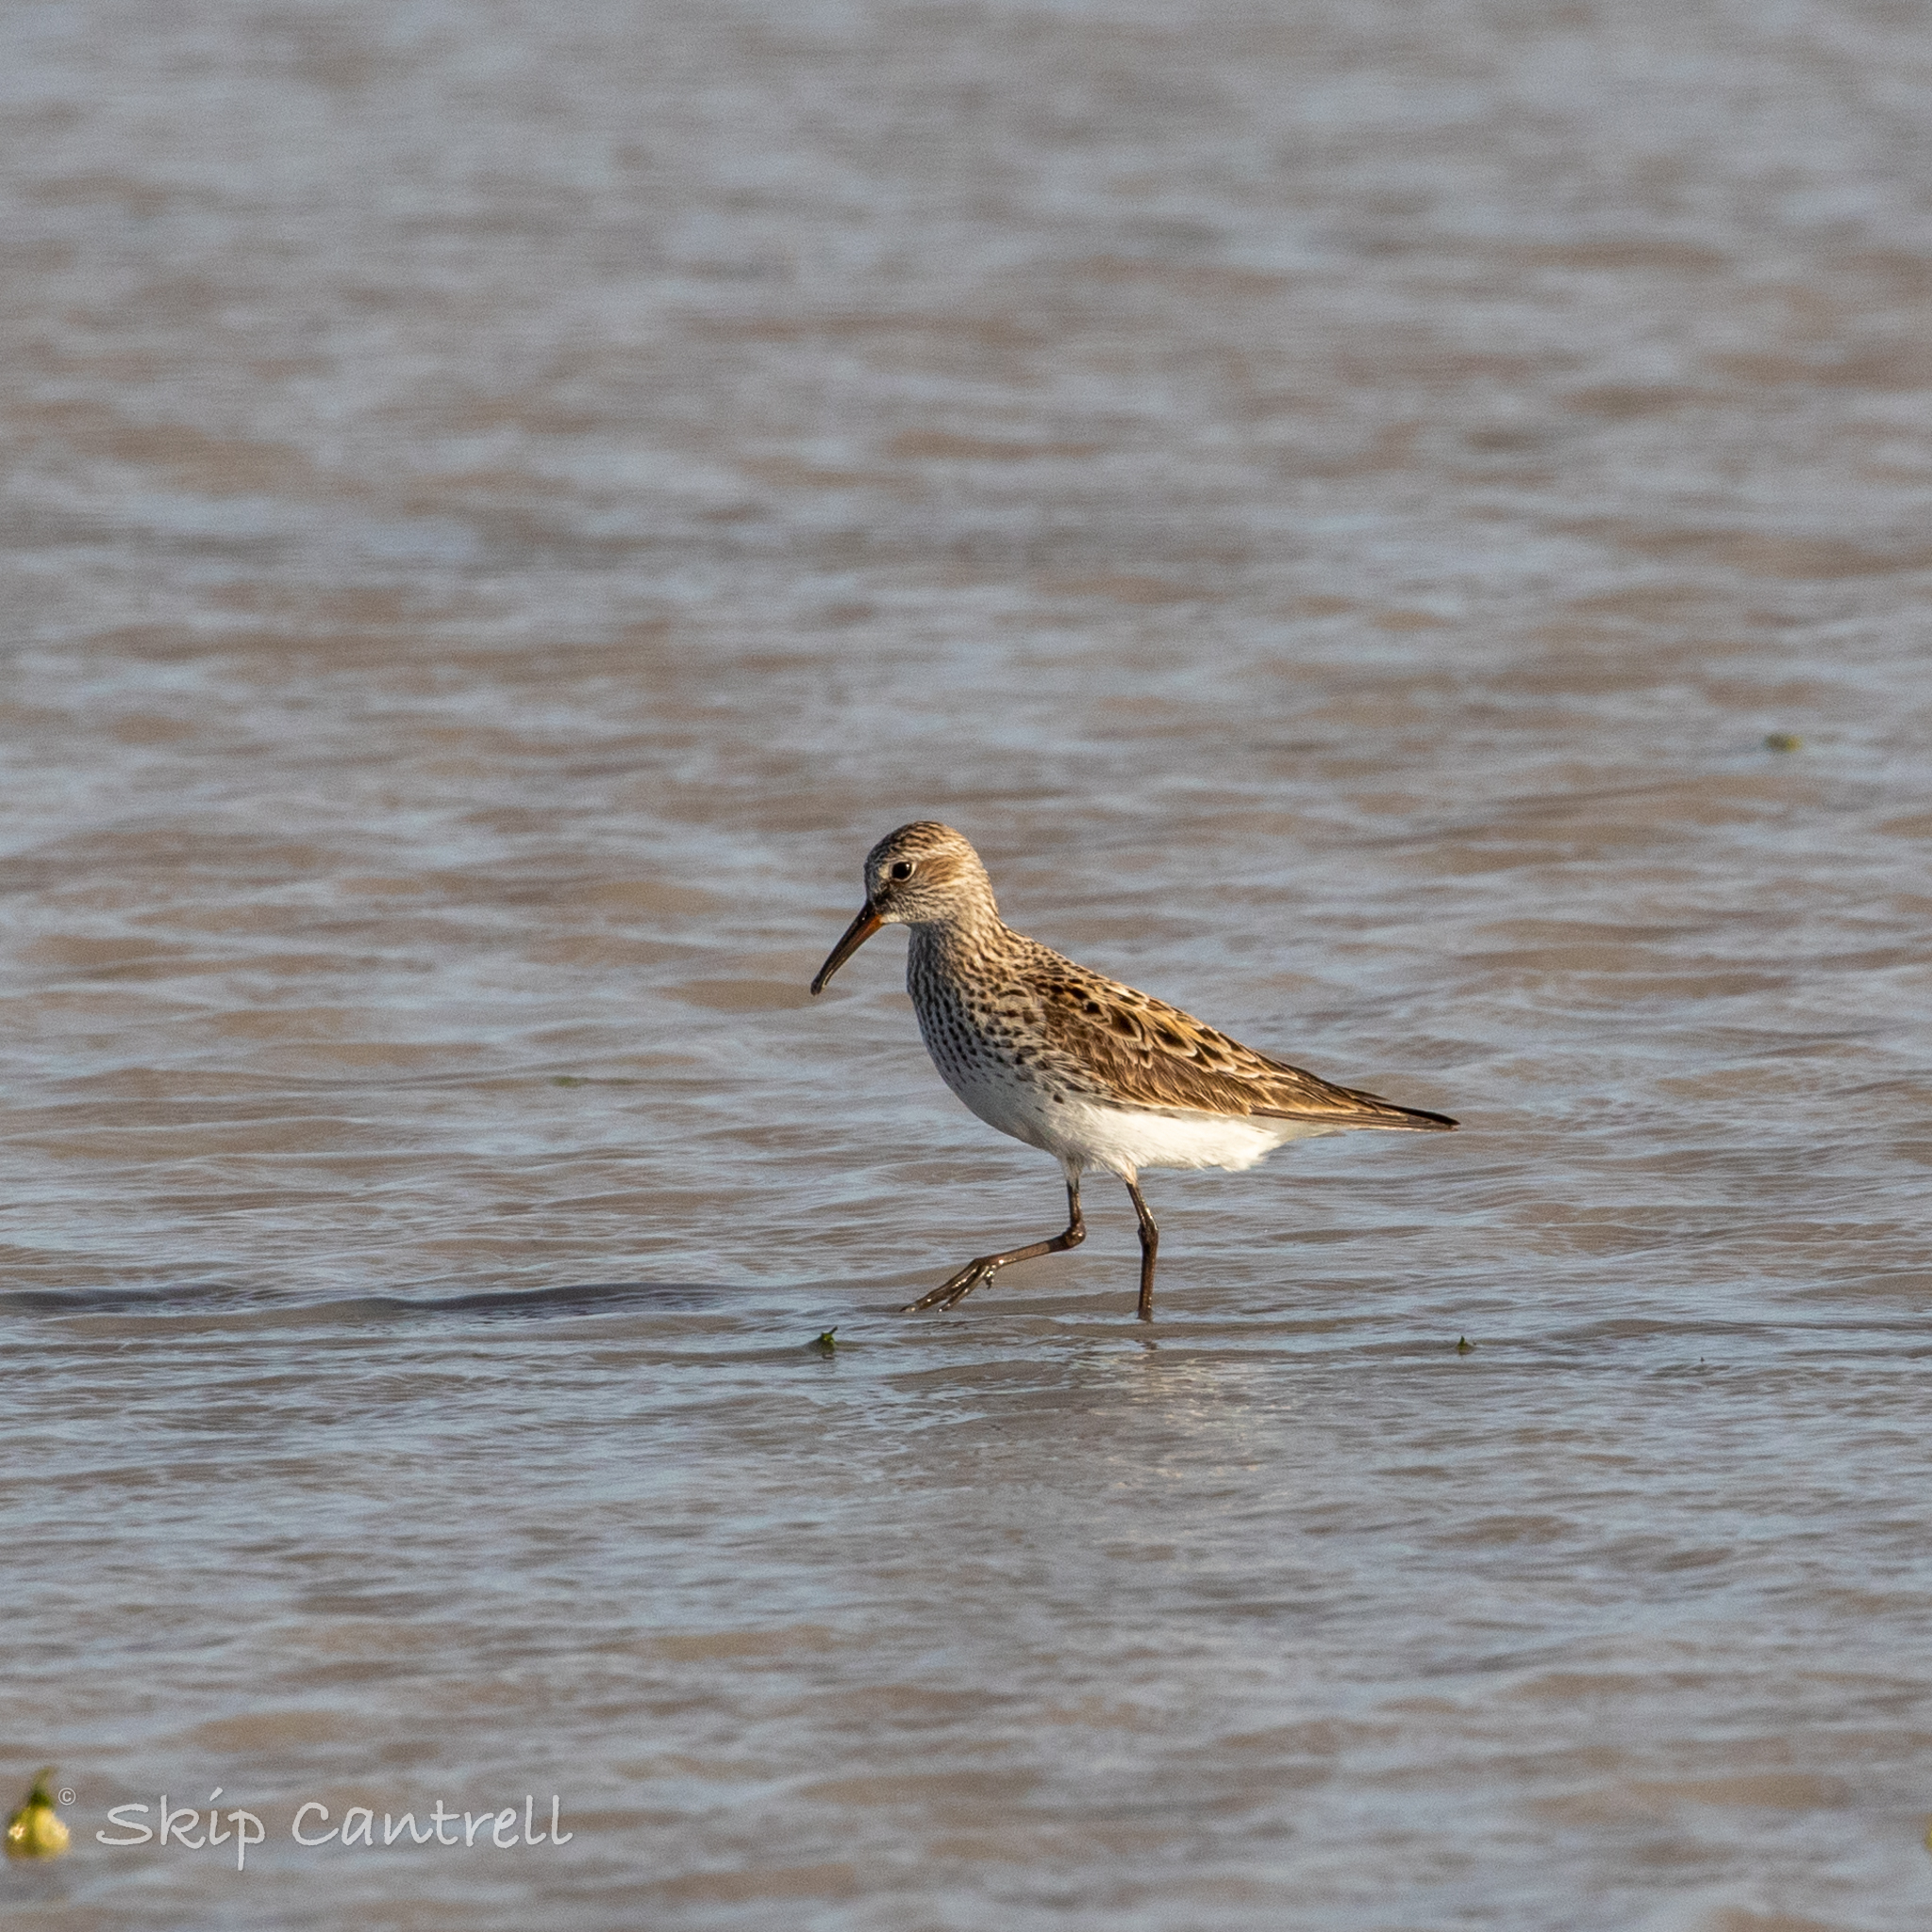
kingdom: Animalia
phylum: Chordata
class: Aves
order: Charadriiformes
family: Scolopacidae
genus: Calidris
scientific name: Calidris melanotos
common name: Pectoral sandpiper
